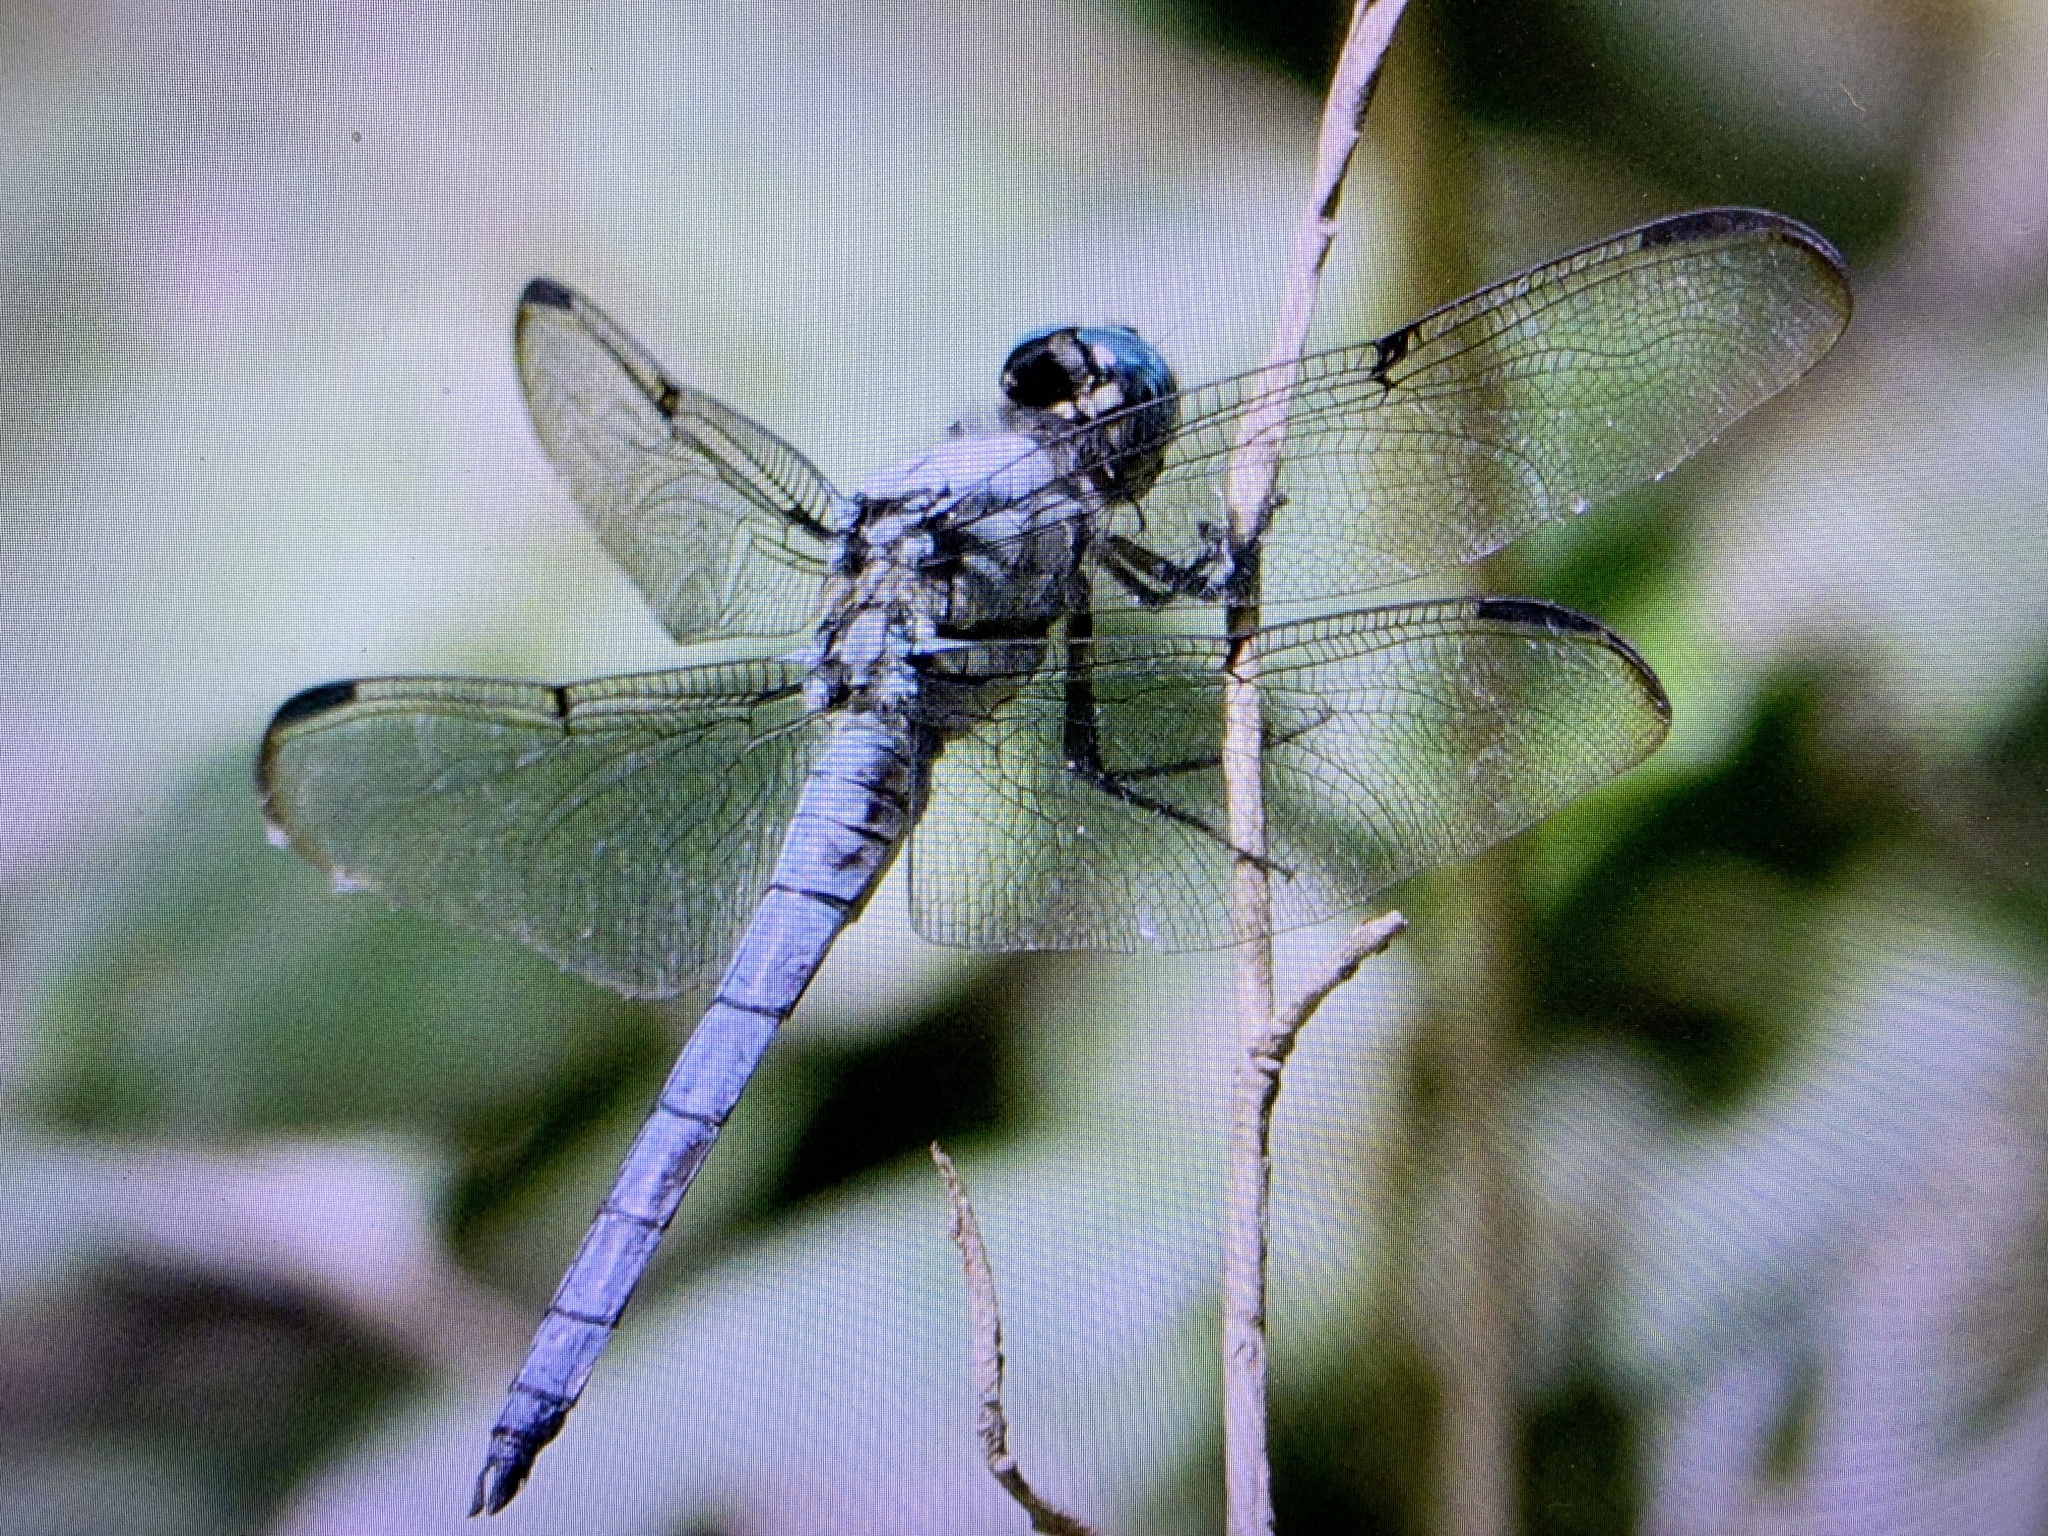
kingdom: Animalia
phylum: Arthropoda
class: Insecta
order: Odonata
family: Libellulidae
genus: Libellula
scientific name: Libellula vibrans
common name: Great blue skimmer
